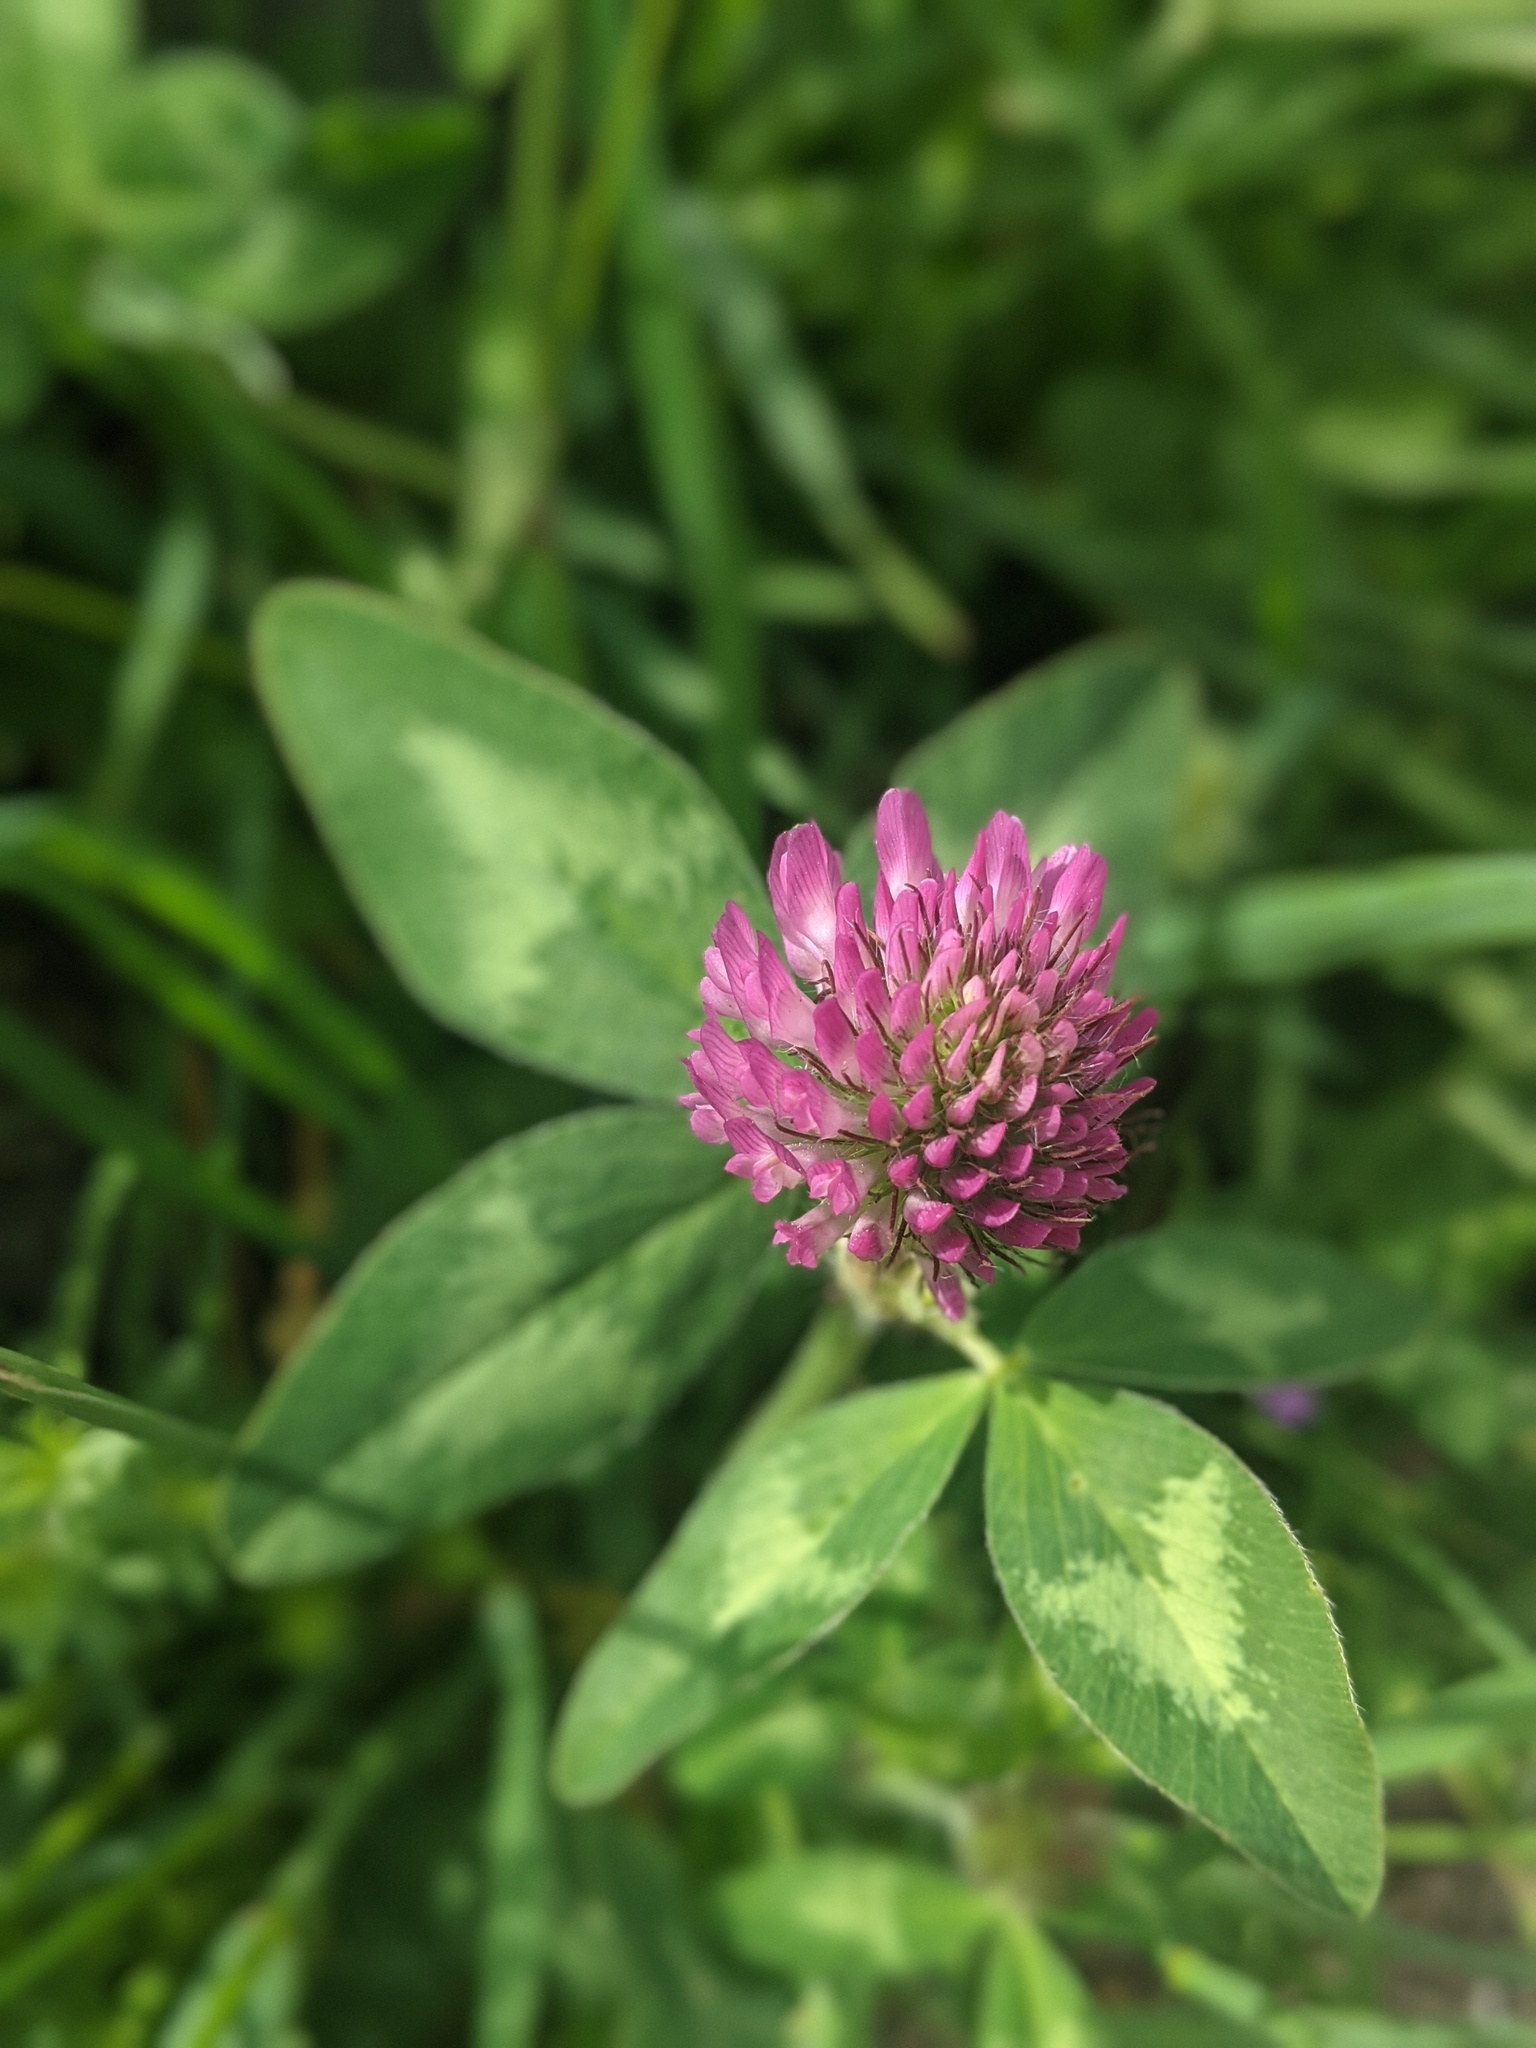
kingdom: Plantae
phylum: Tracheophyta
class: Magnoliopsida
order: Fabales
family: Fabaceae
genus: Trifolium
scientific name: Trifolium pratense
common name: Red clover
